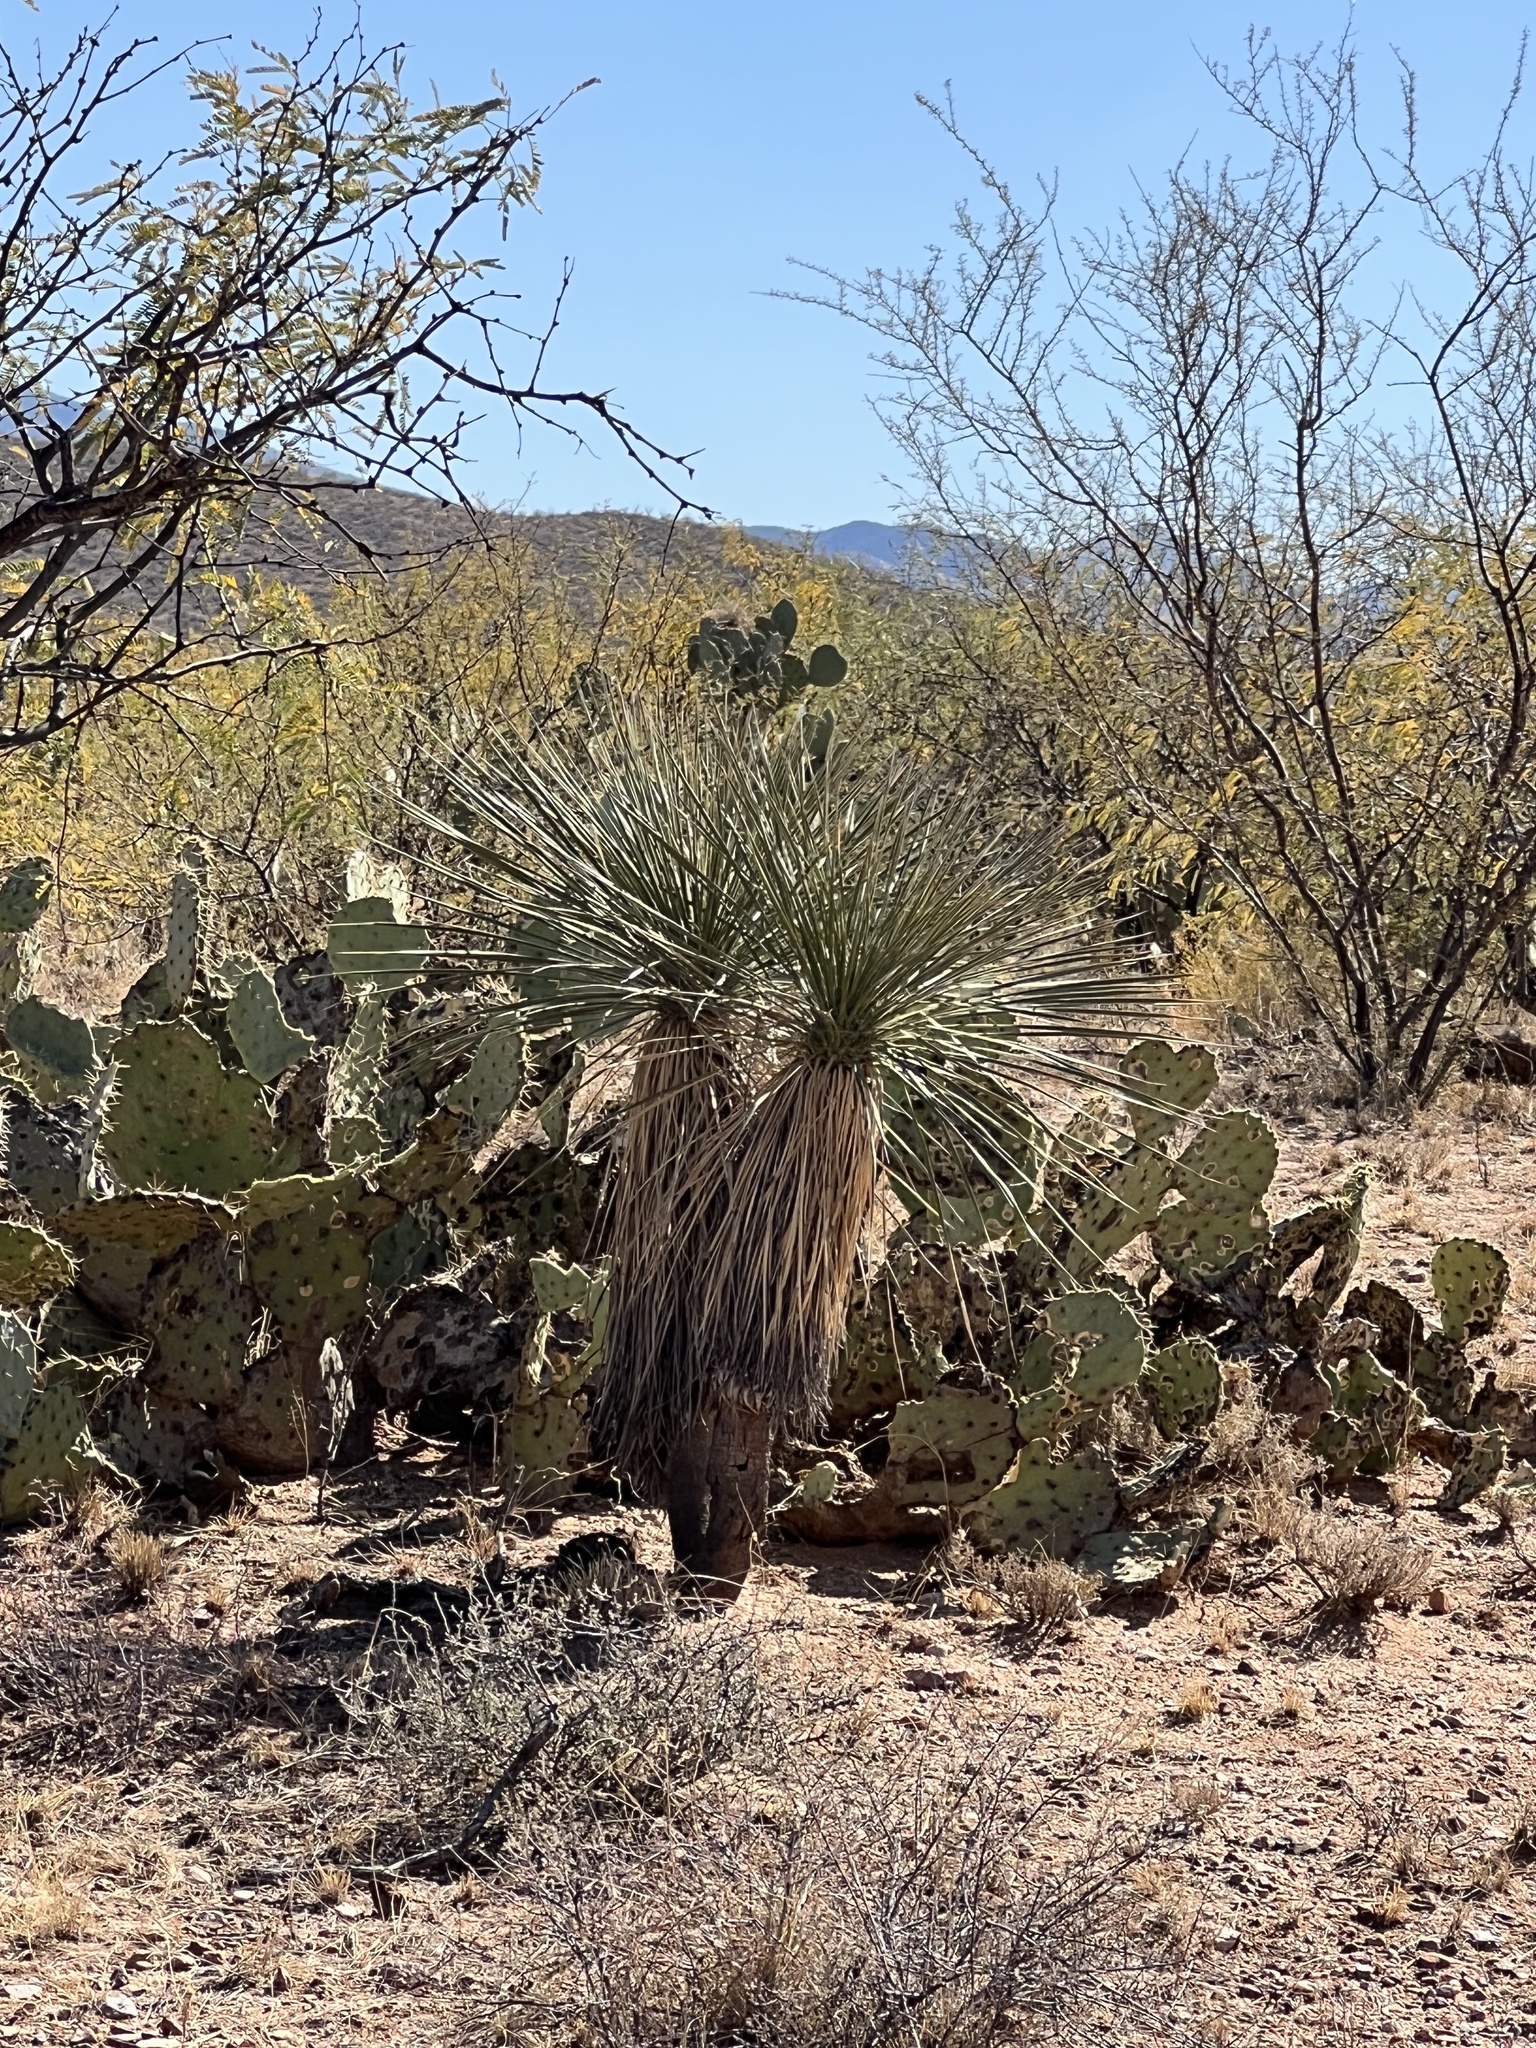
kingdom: Plantae
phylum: Tracheophyta
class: Liliopsida
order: Asparagales
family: Asparagaceae
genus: Yucca
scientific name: Yucca elata
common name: Palmella
